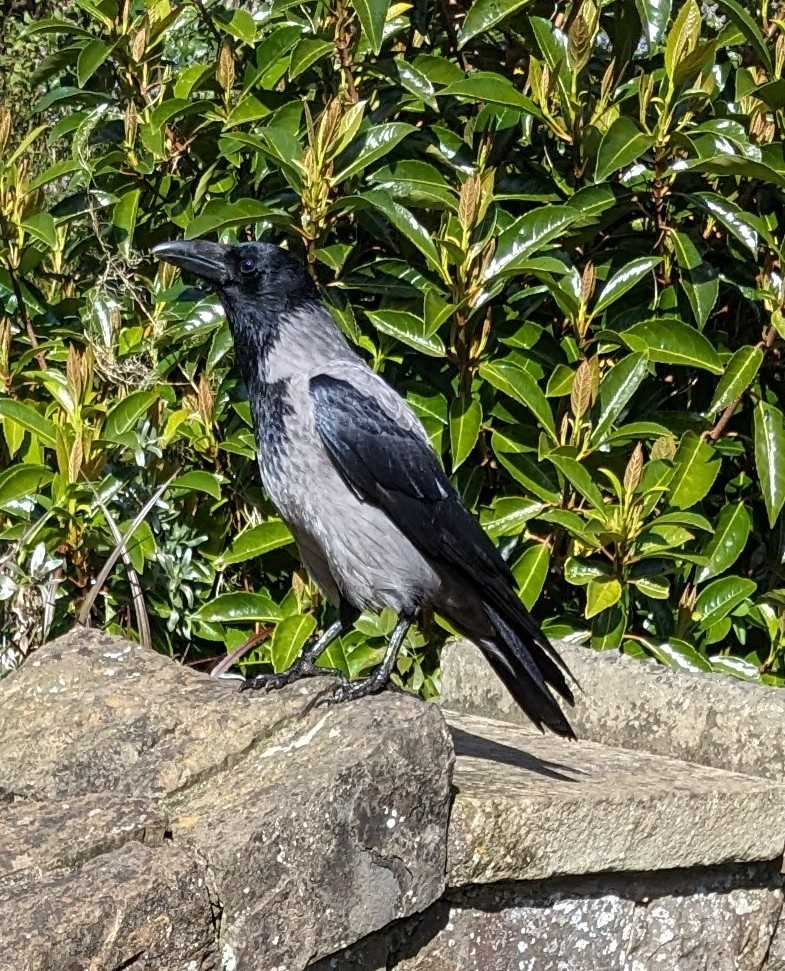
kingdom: Animalia
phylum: Chordata
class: Aves
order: Passeriformes
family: Corvidae
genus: Corvus
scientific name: Corvus cornix
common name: Hooded crow
